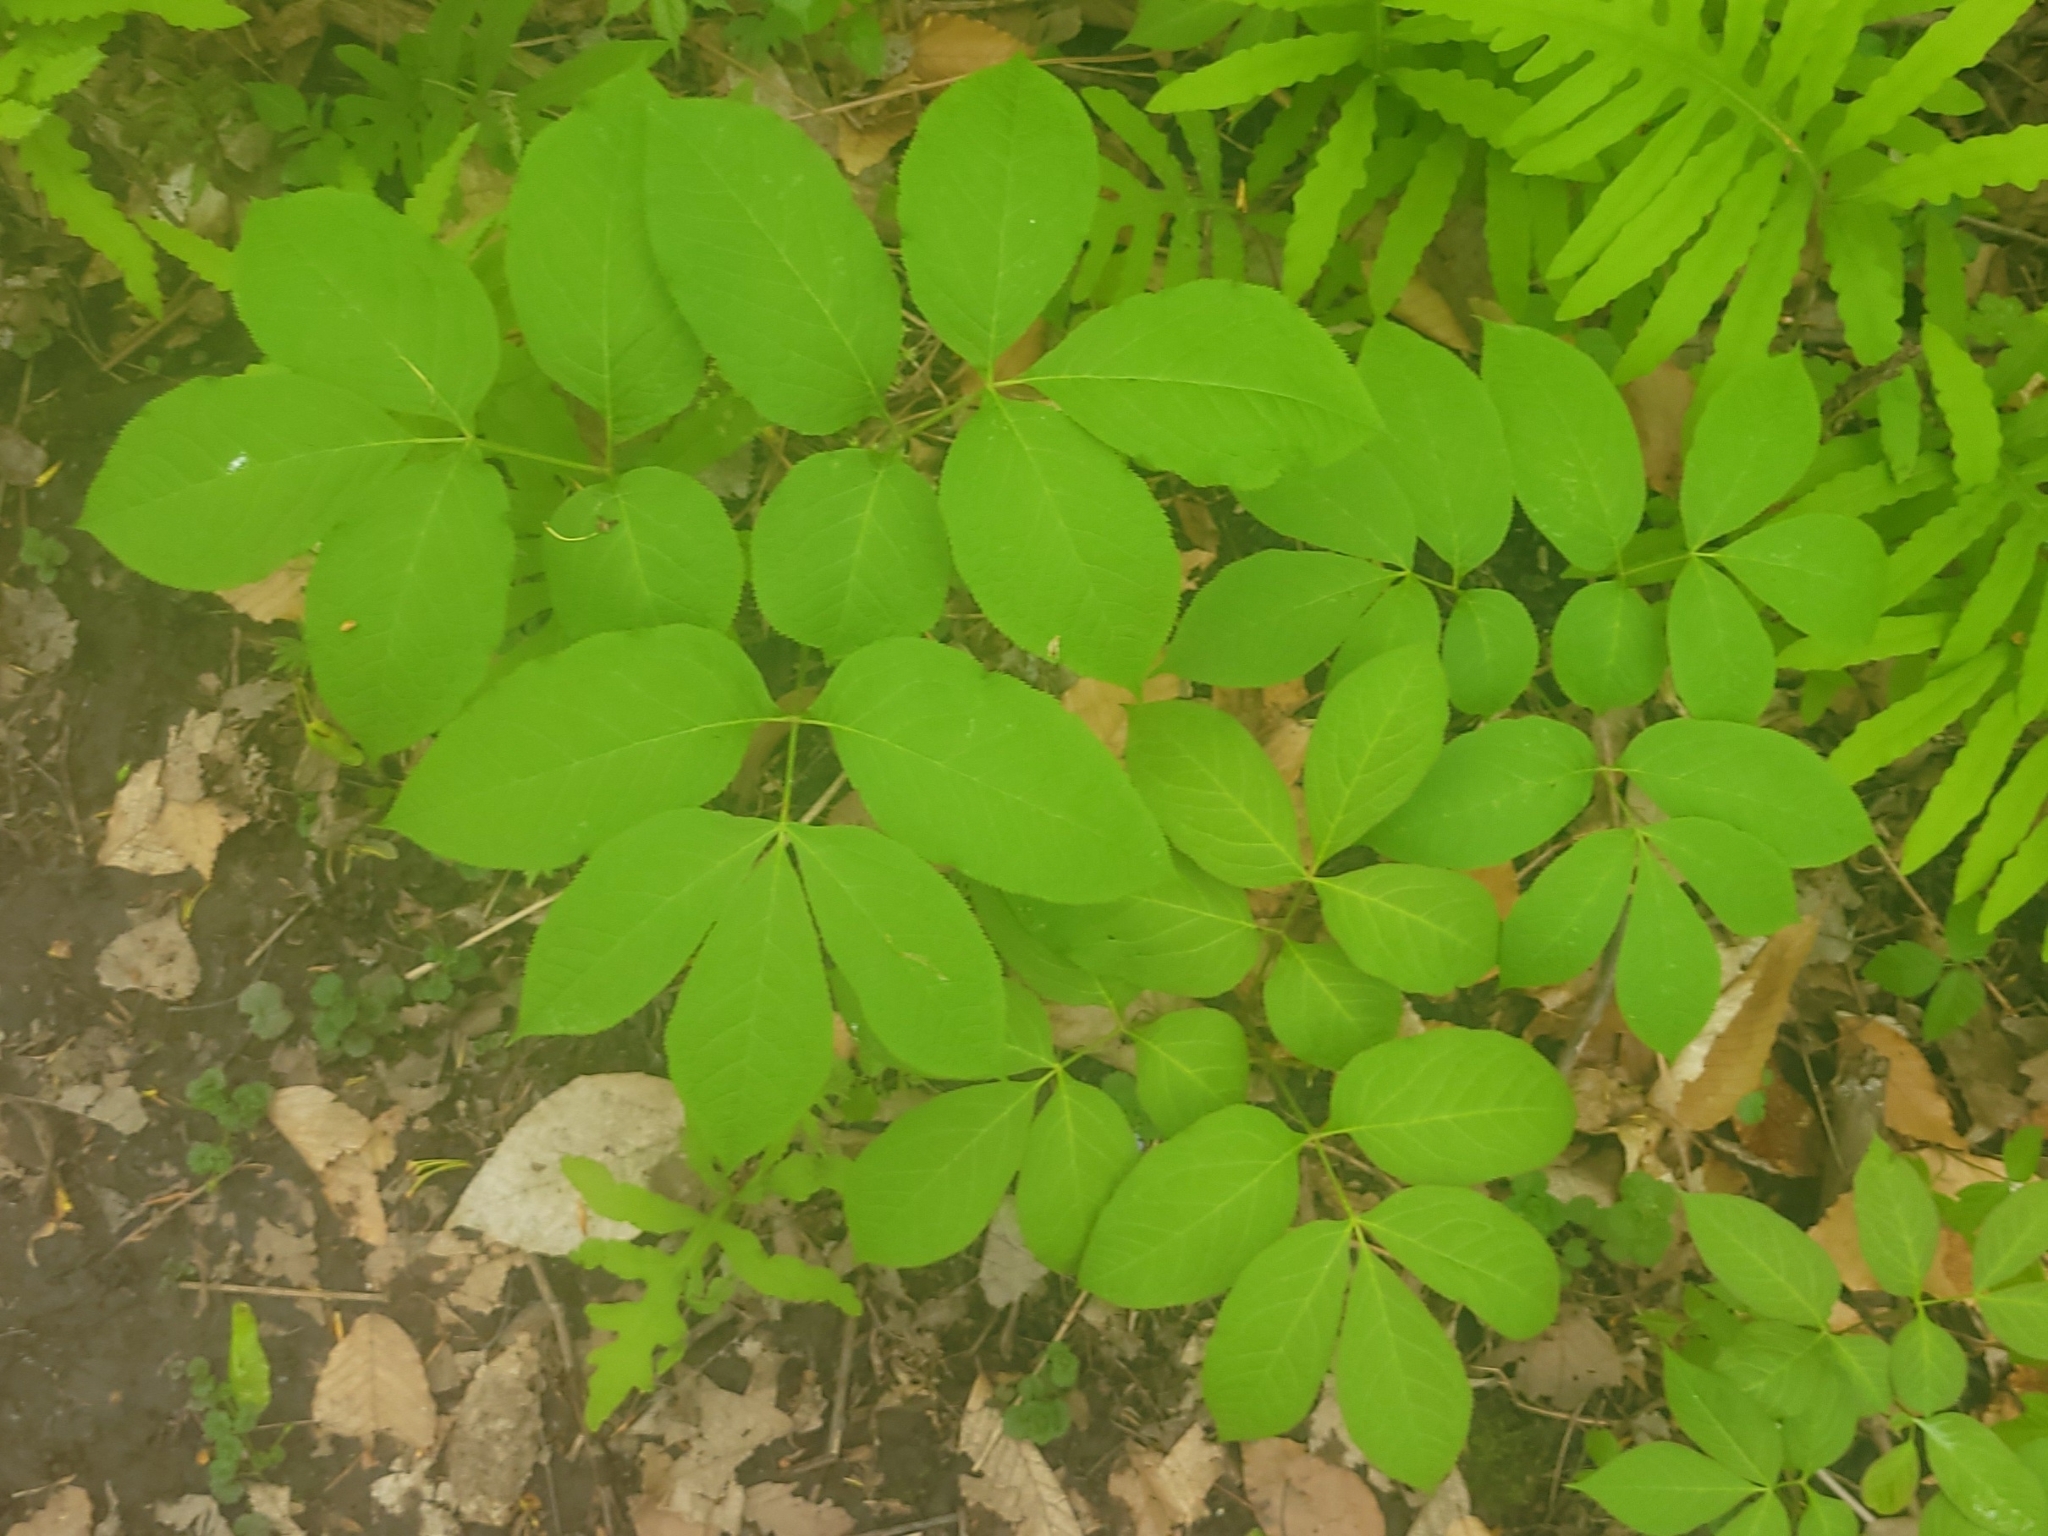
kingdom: Plantae
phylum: Tracheophyta
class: Magnoliopsida
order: Apiales
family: Araliaceae
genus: Aralia
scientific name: Aralia nudicaulis
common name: Wild sarsaparilla
